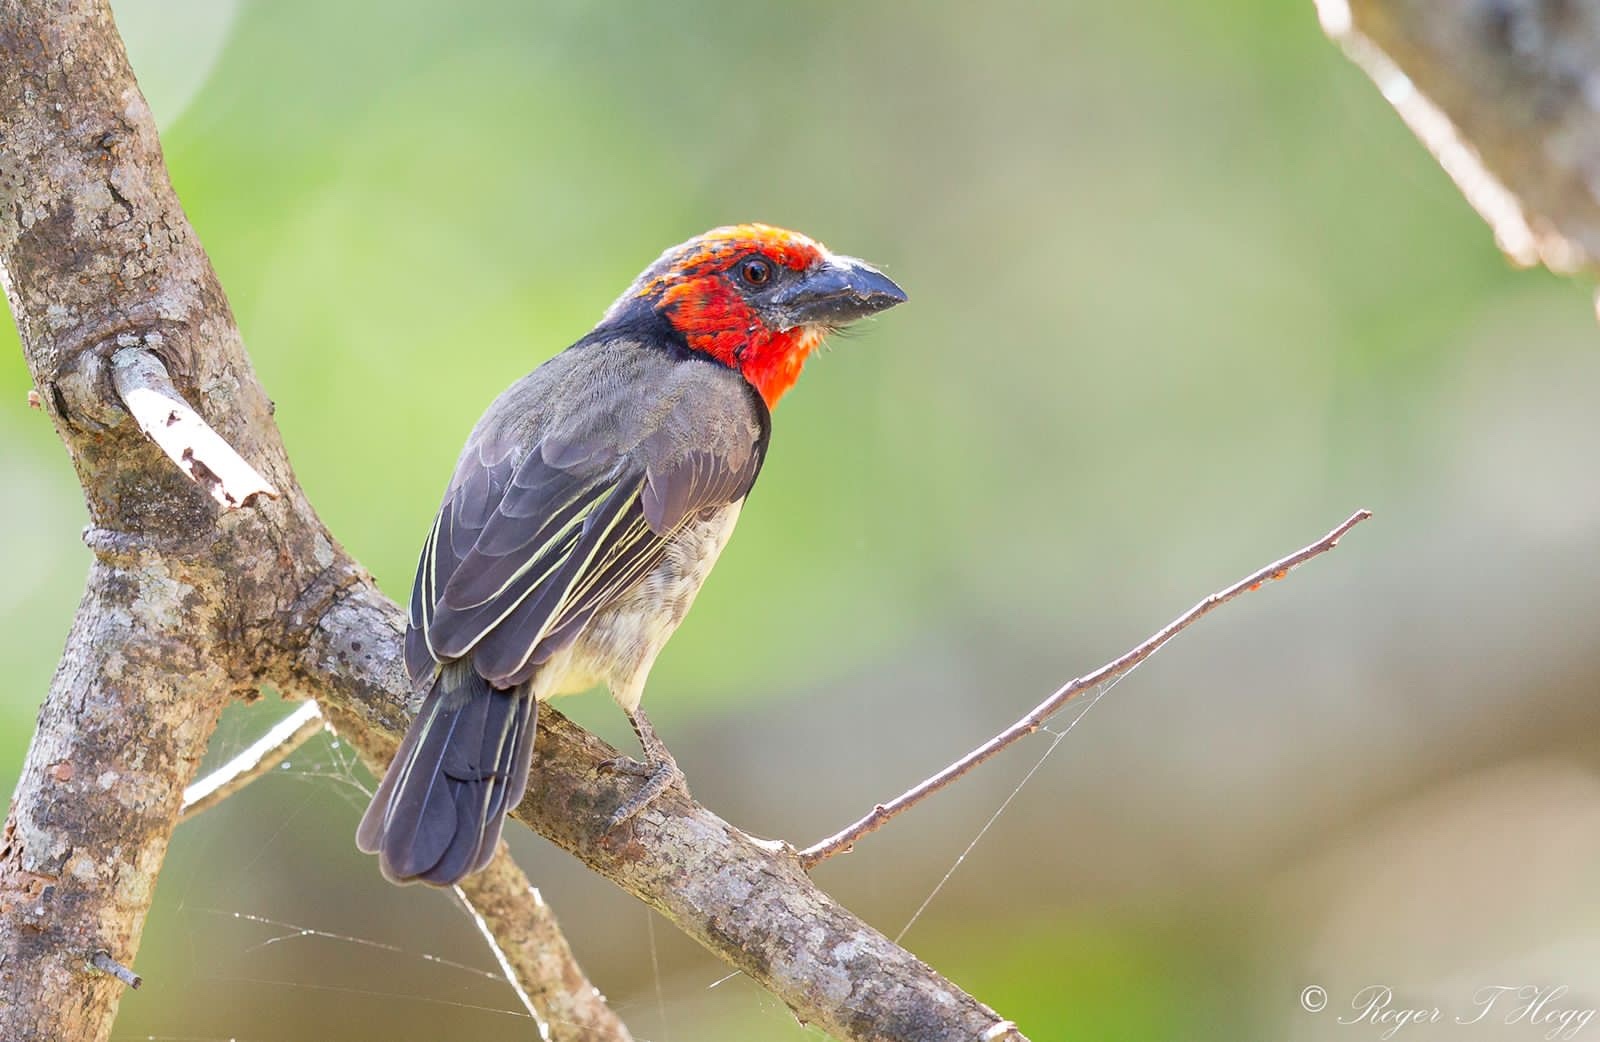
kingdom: Animalia
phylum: Chordata
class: Aves
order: Piciformes
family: Lybiidae
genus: Lybius
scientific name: Lybius torquatus
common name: Black-collared barbet
